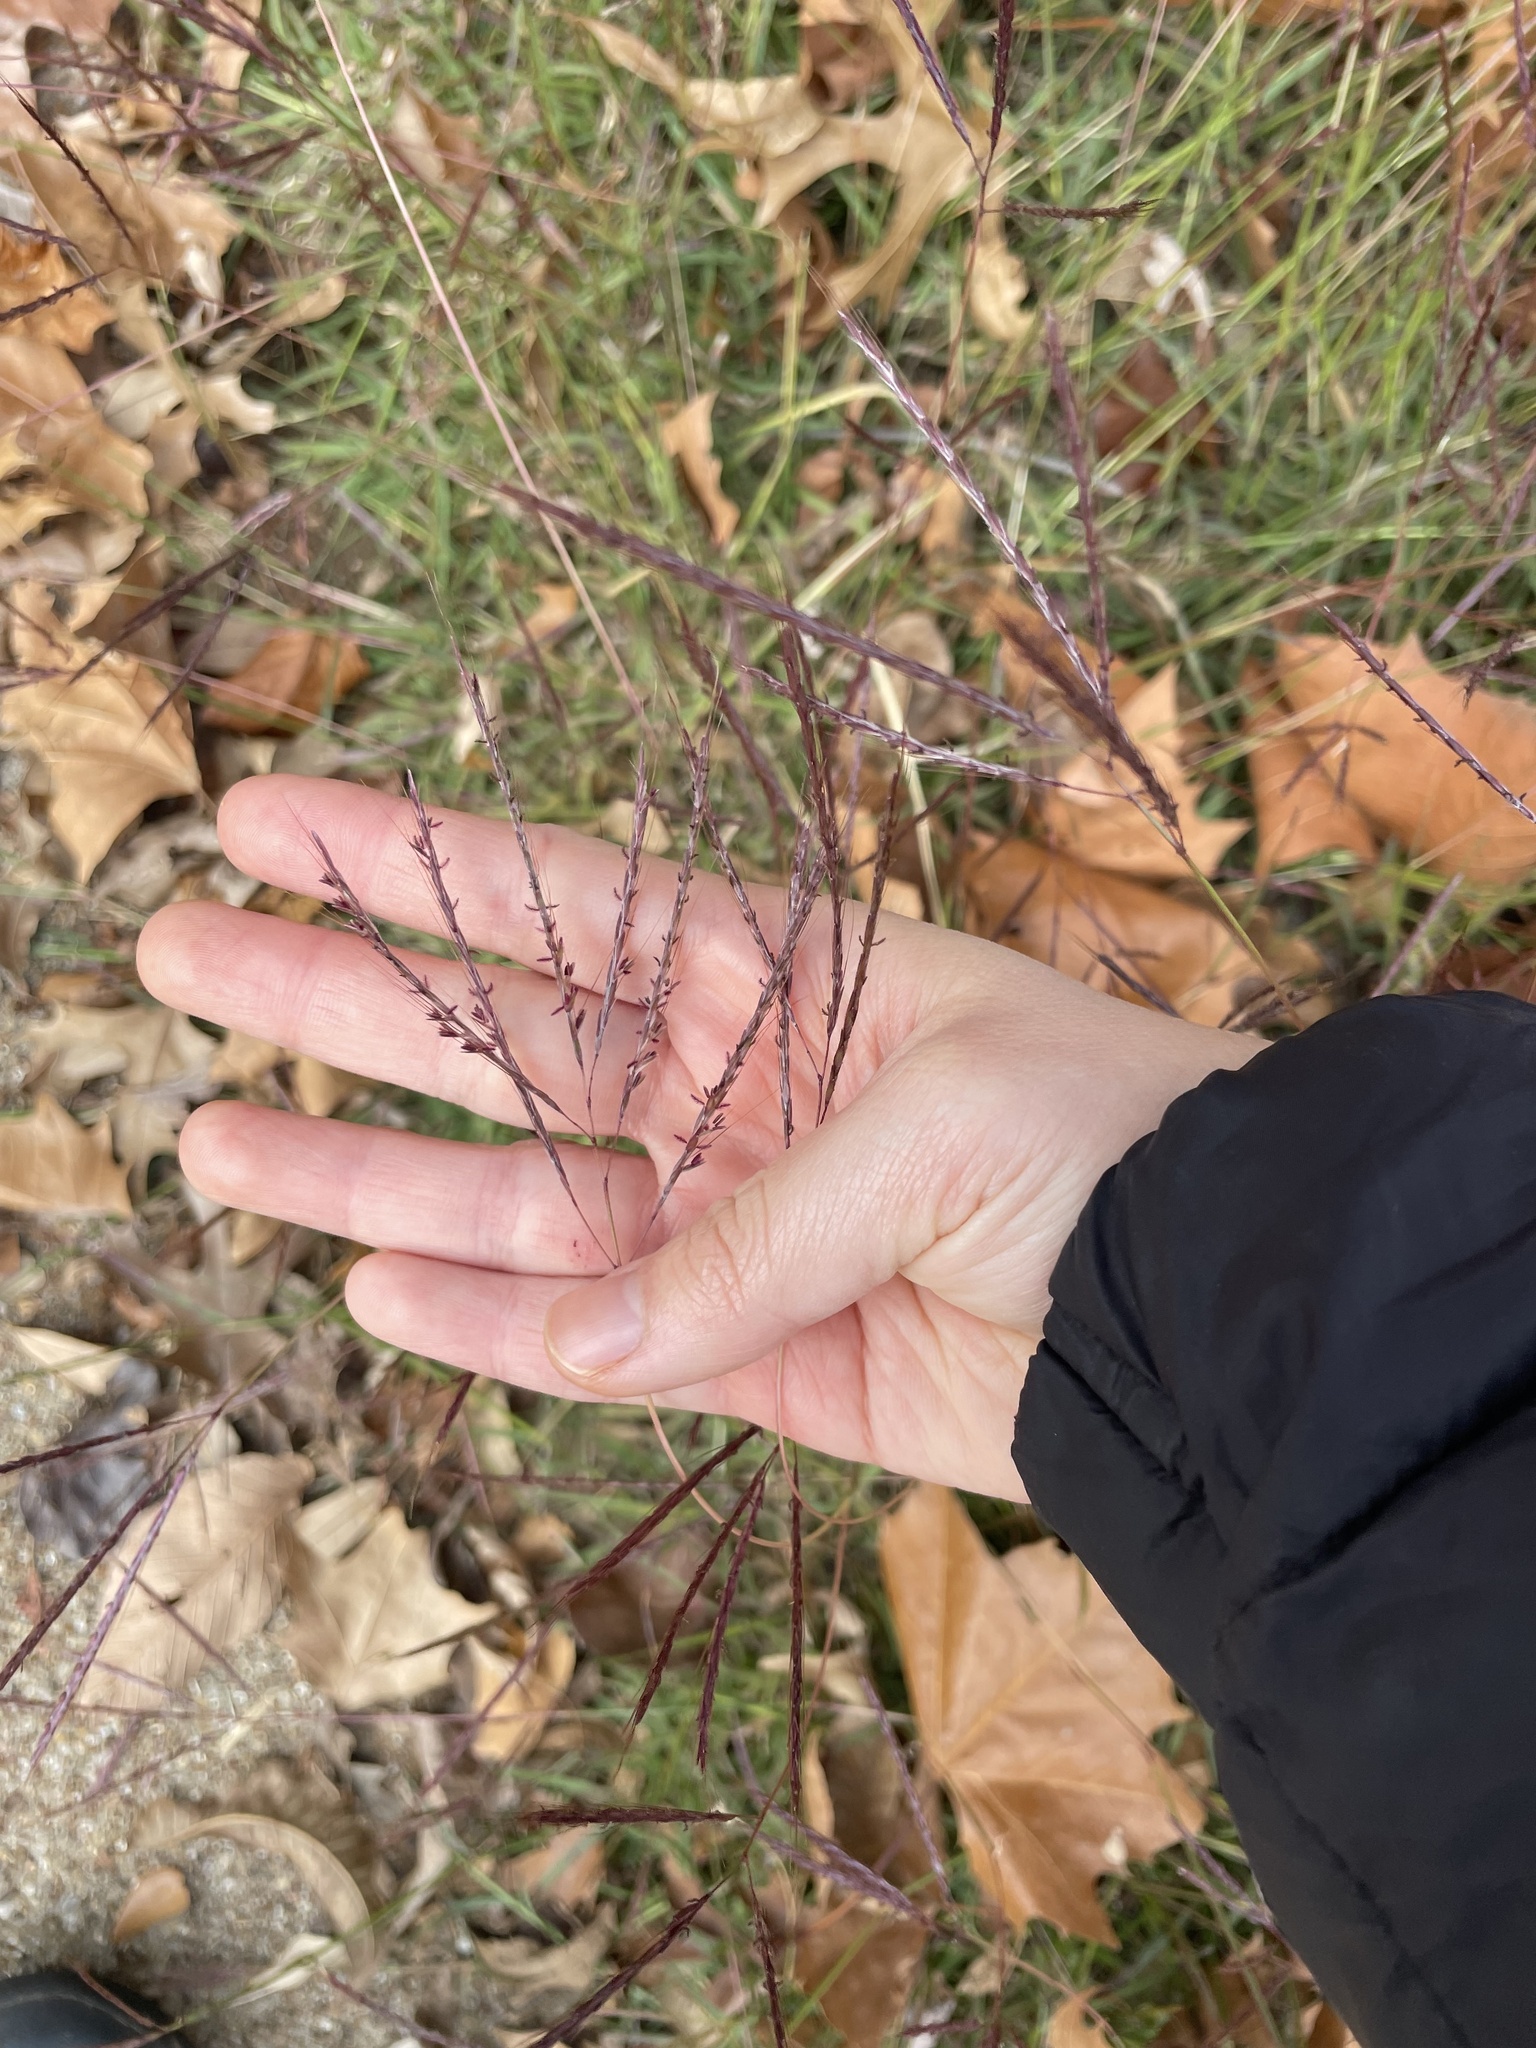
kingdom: Plantae
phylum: Tracheophyta
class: Liliopsida
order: Poales
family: Poaceae
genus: Bothriochloa
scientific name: Bothriochloa ischaemum
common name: Yellow bluestem
